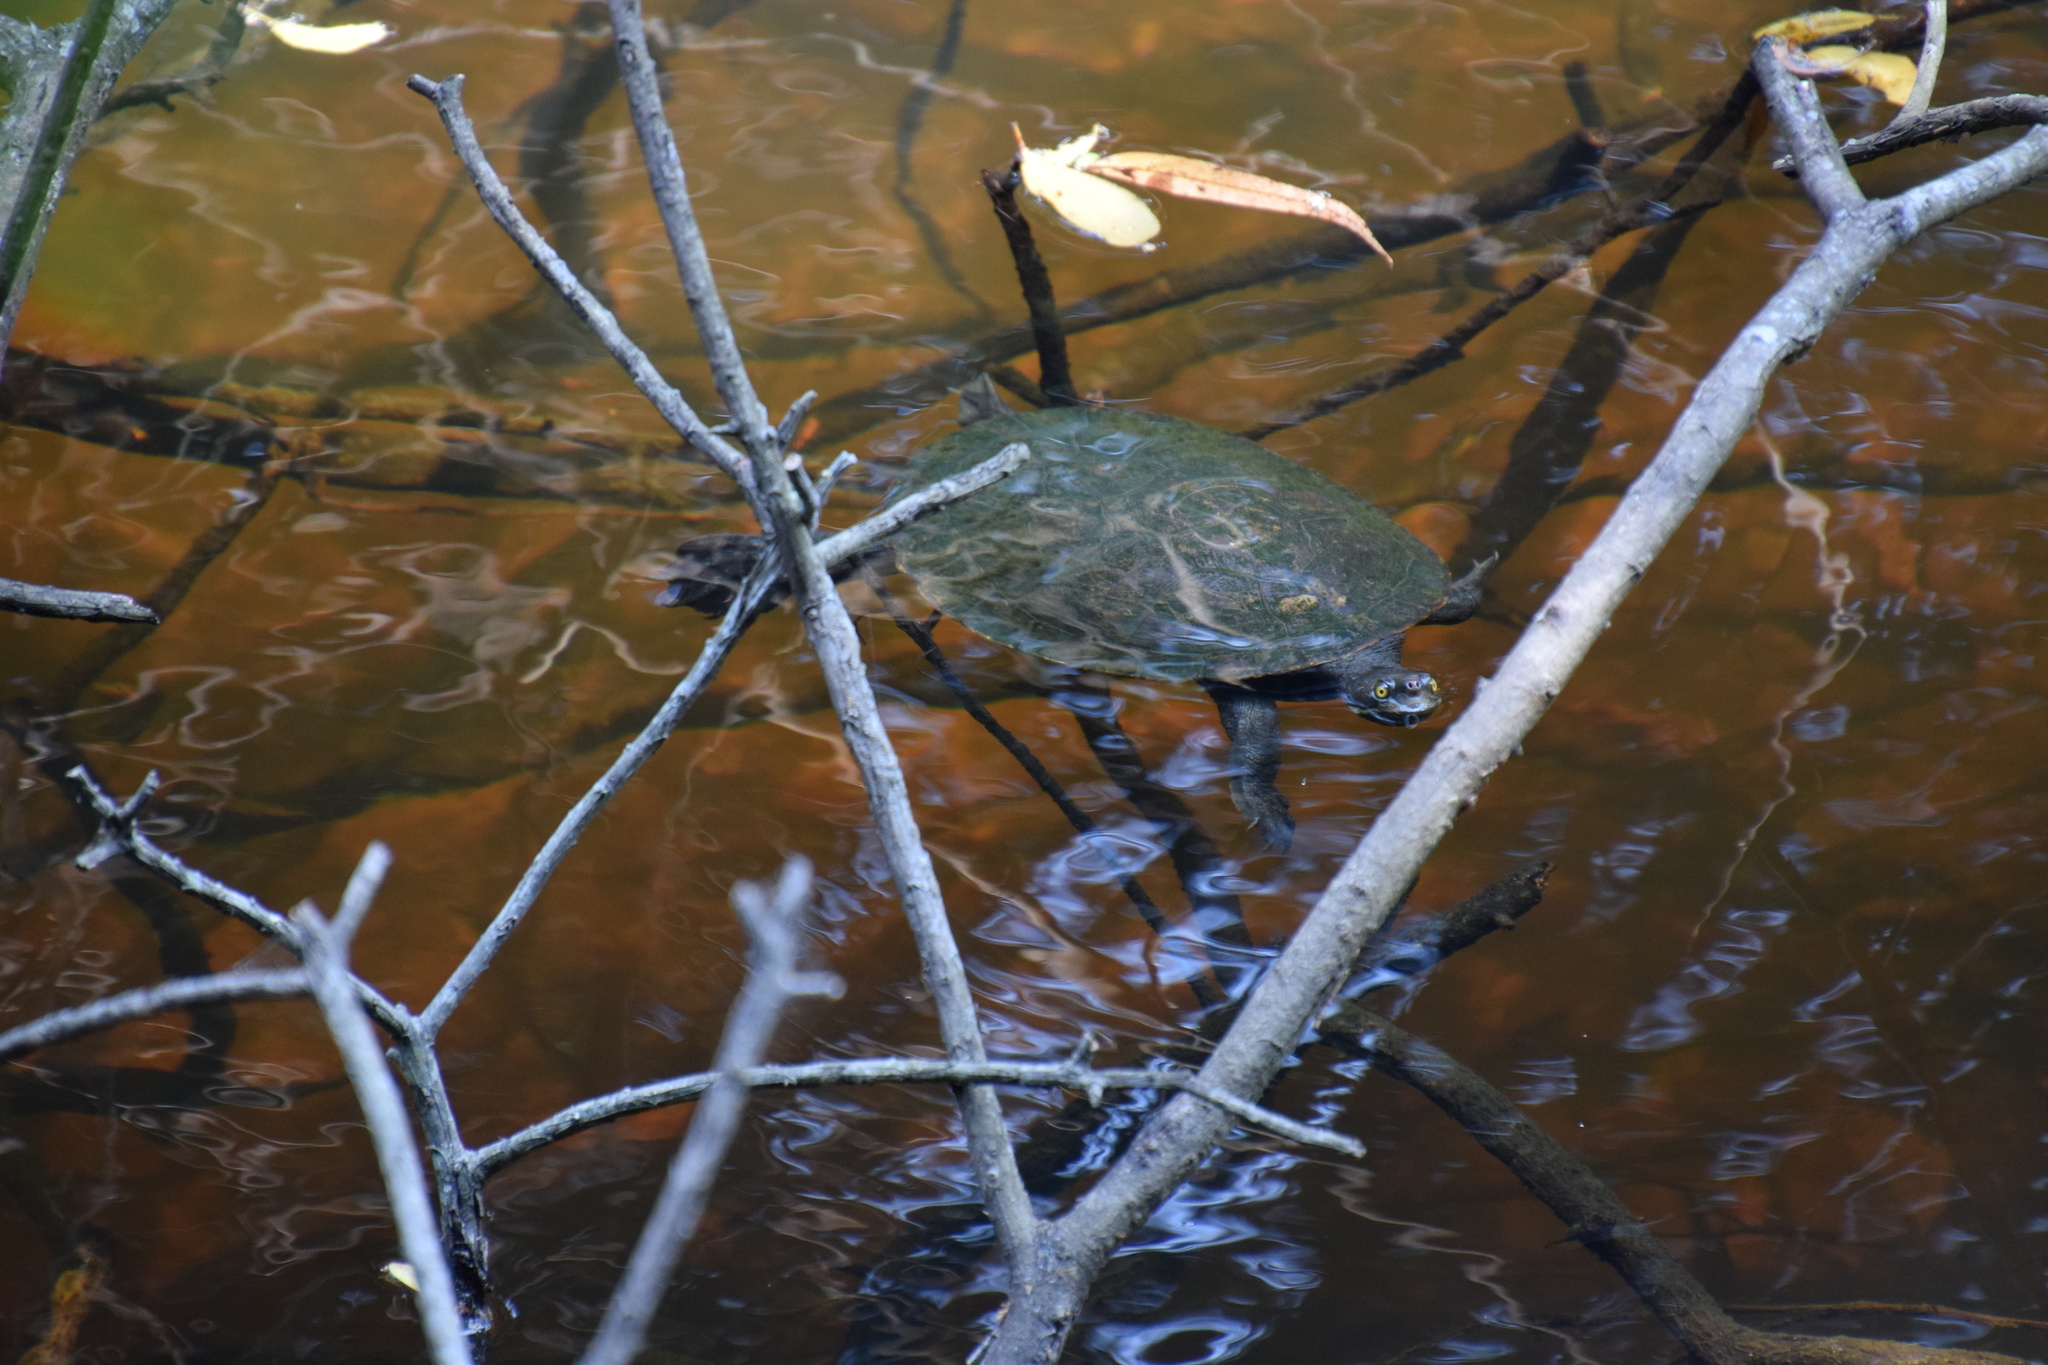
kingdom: Animalia
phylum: Chordata
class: Testudines
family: Chelidae
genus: Emydura
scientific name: Emydura macquarii
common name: Murray river turtle
